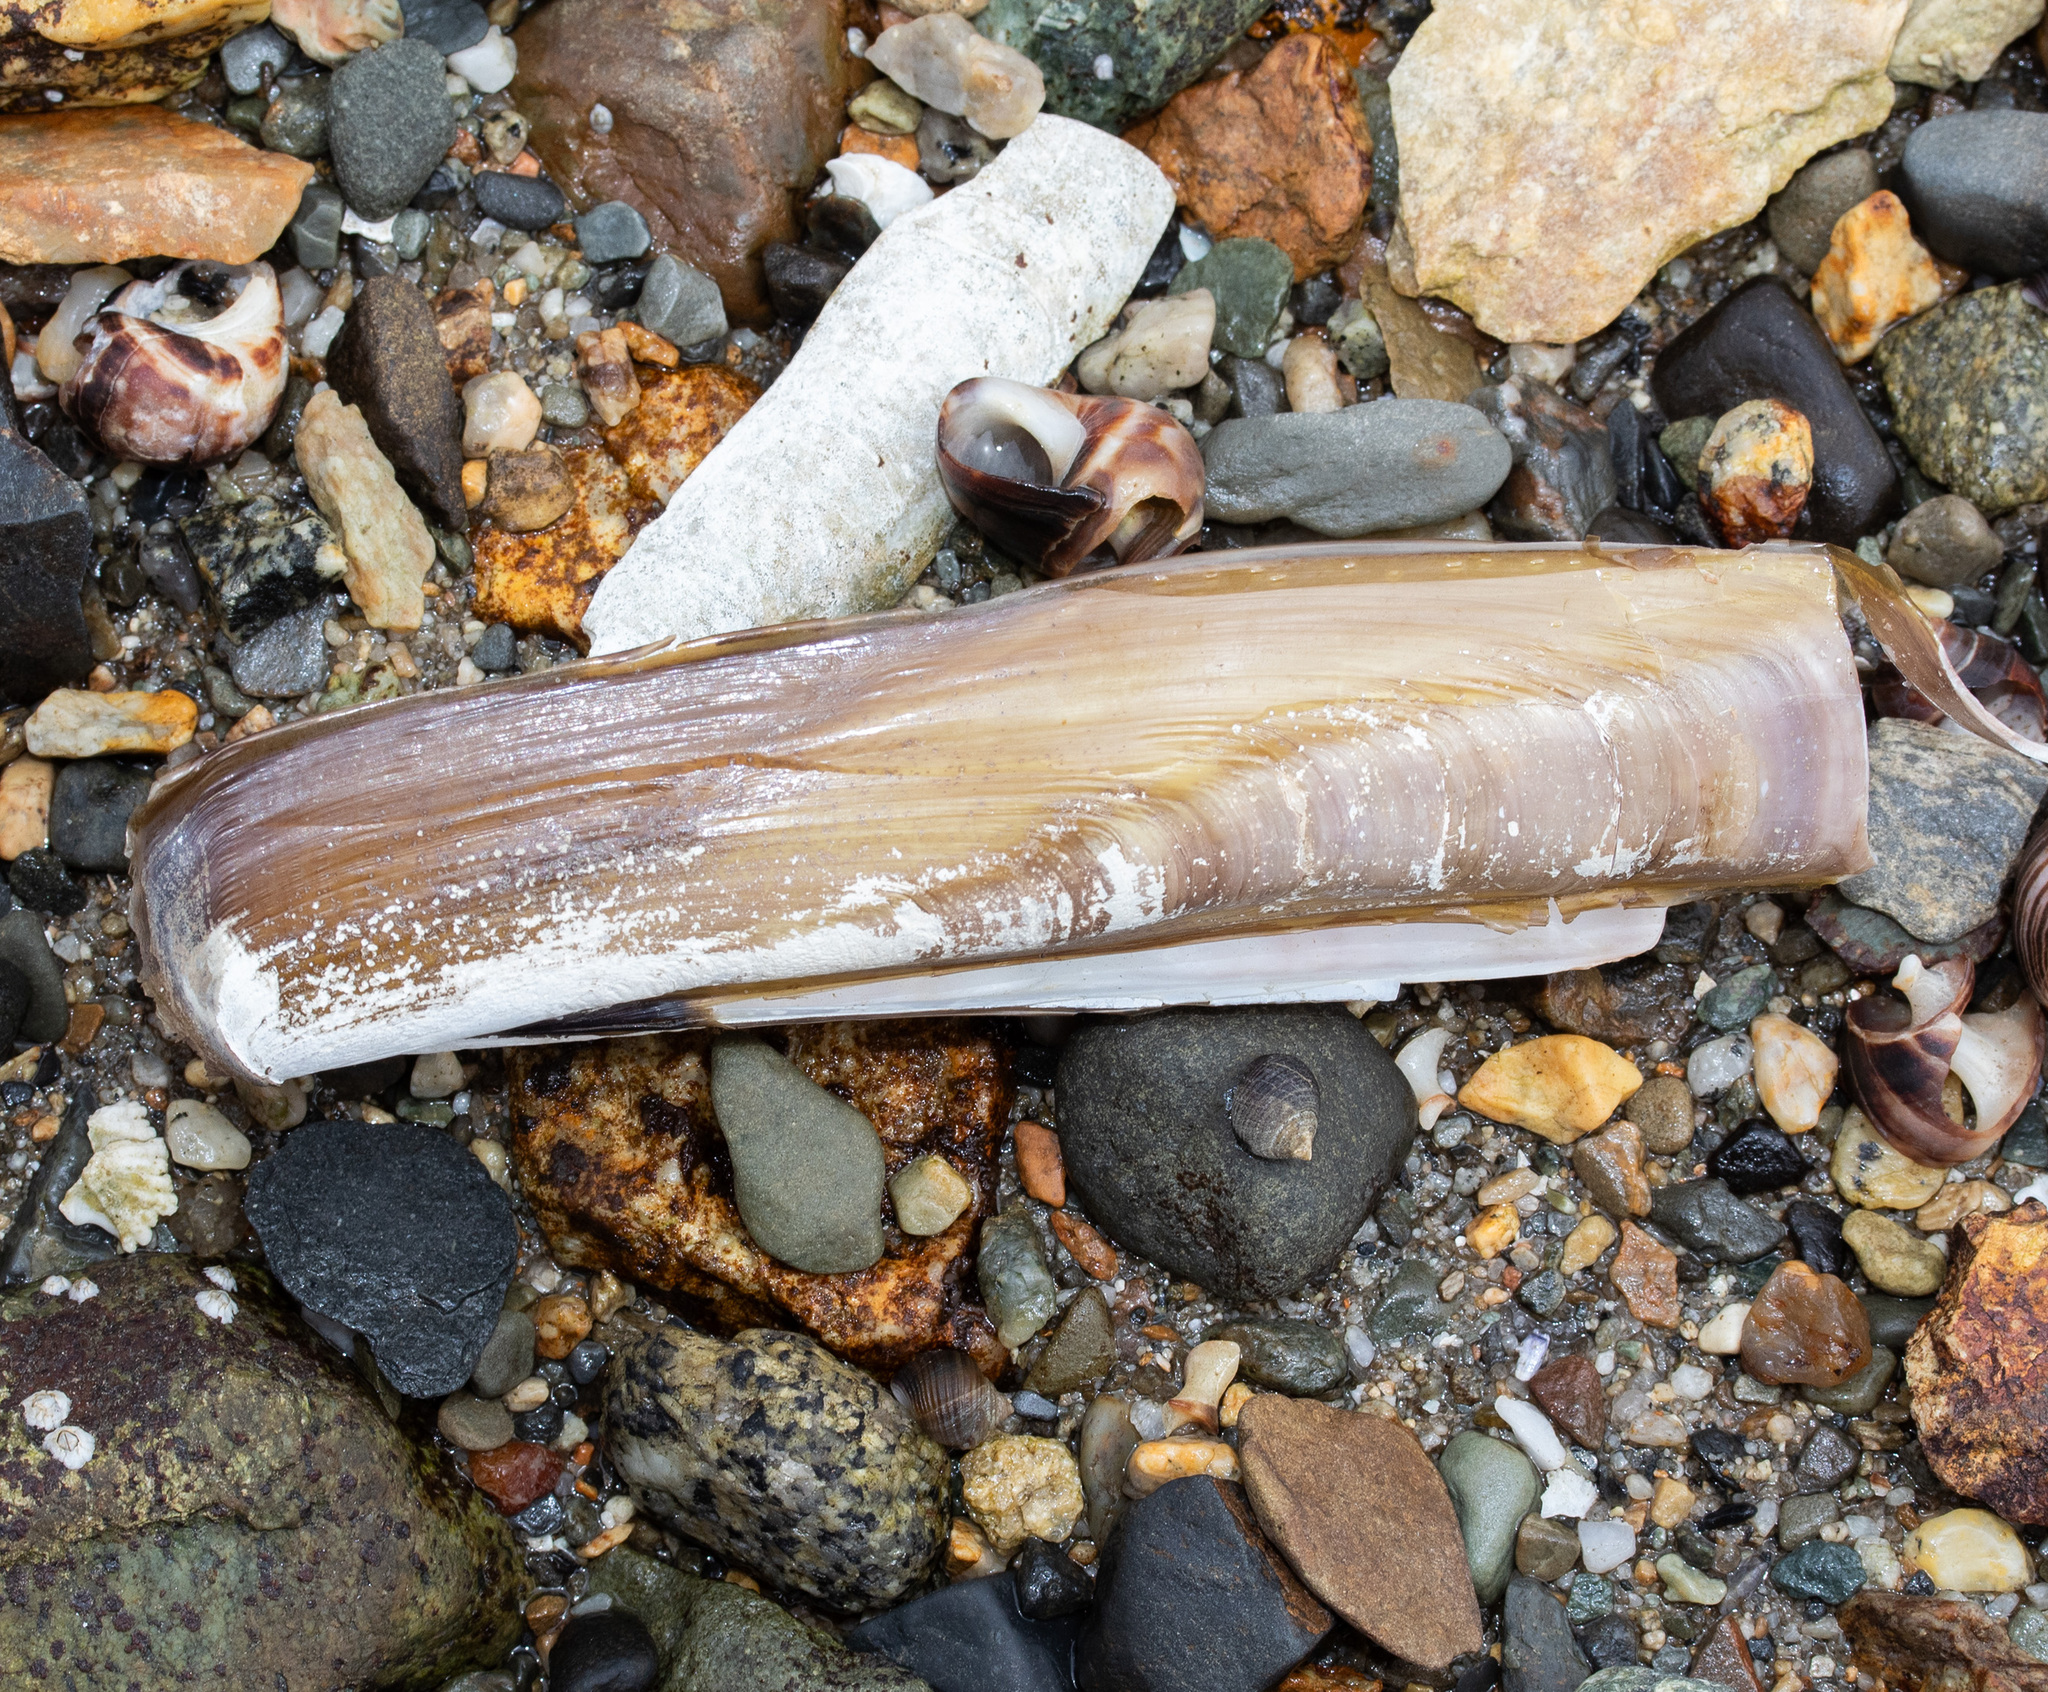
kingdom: Animalia
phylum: Mollusca
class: Bivalvia
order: Adapedonta
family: Pharidae
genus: Ensis
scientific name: Ensis leei
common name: American jack knife clam
